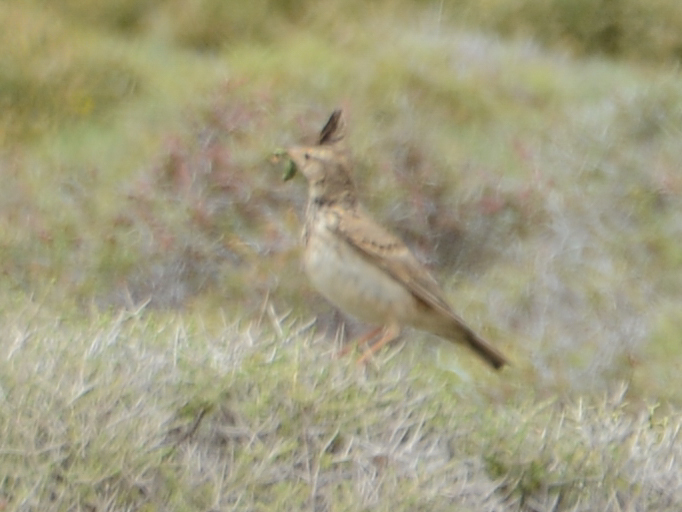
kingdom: Animalia
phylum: Chordata
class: Aves
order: Passeriformes
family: Alaudidae
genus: Galerida
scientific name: Galerida cristata
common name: Crested lark
